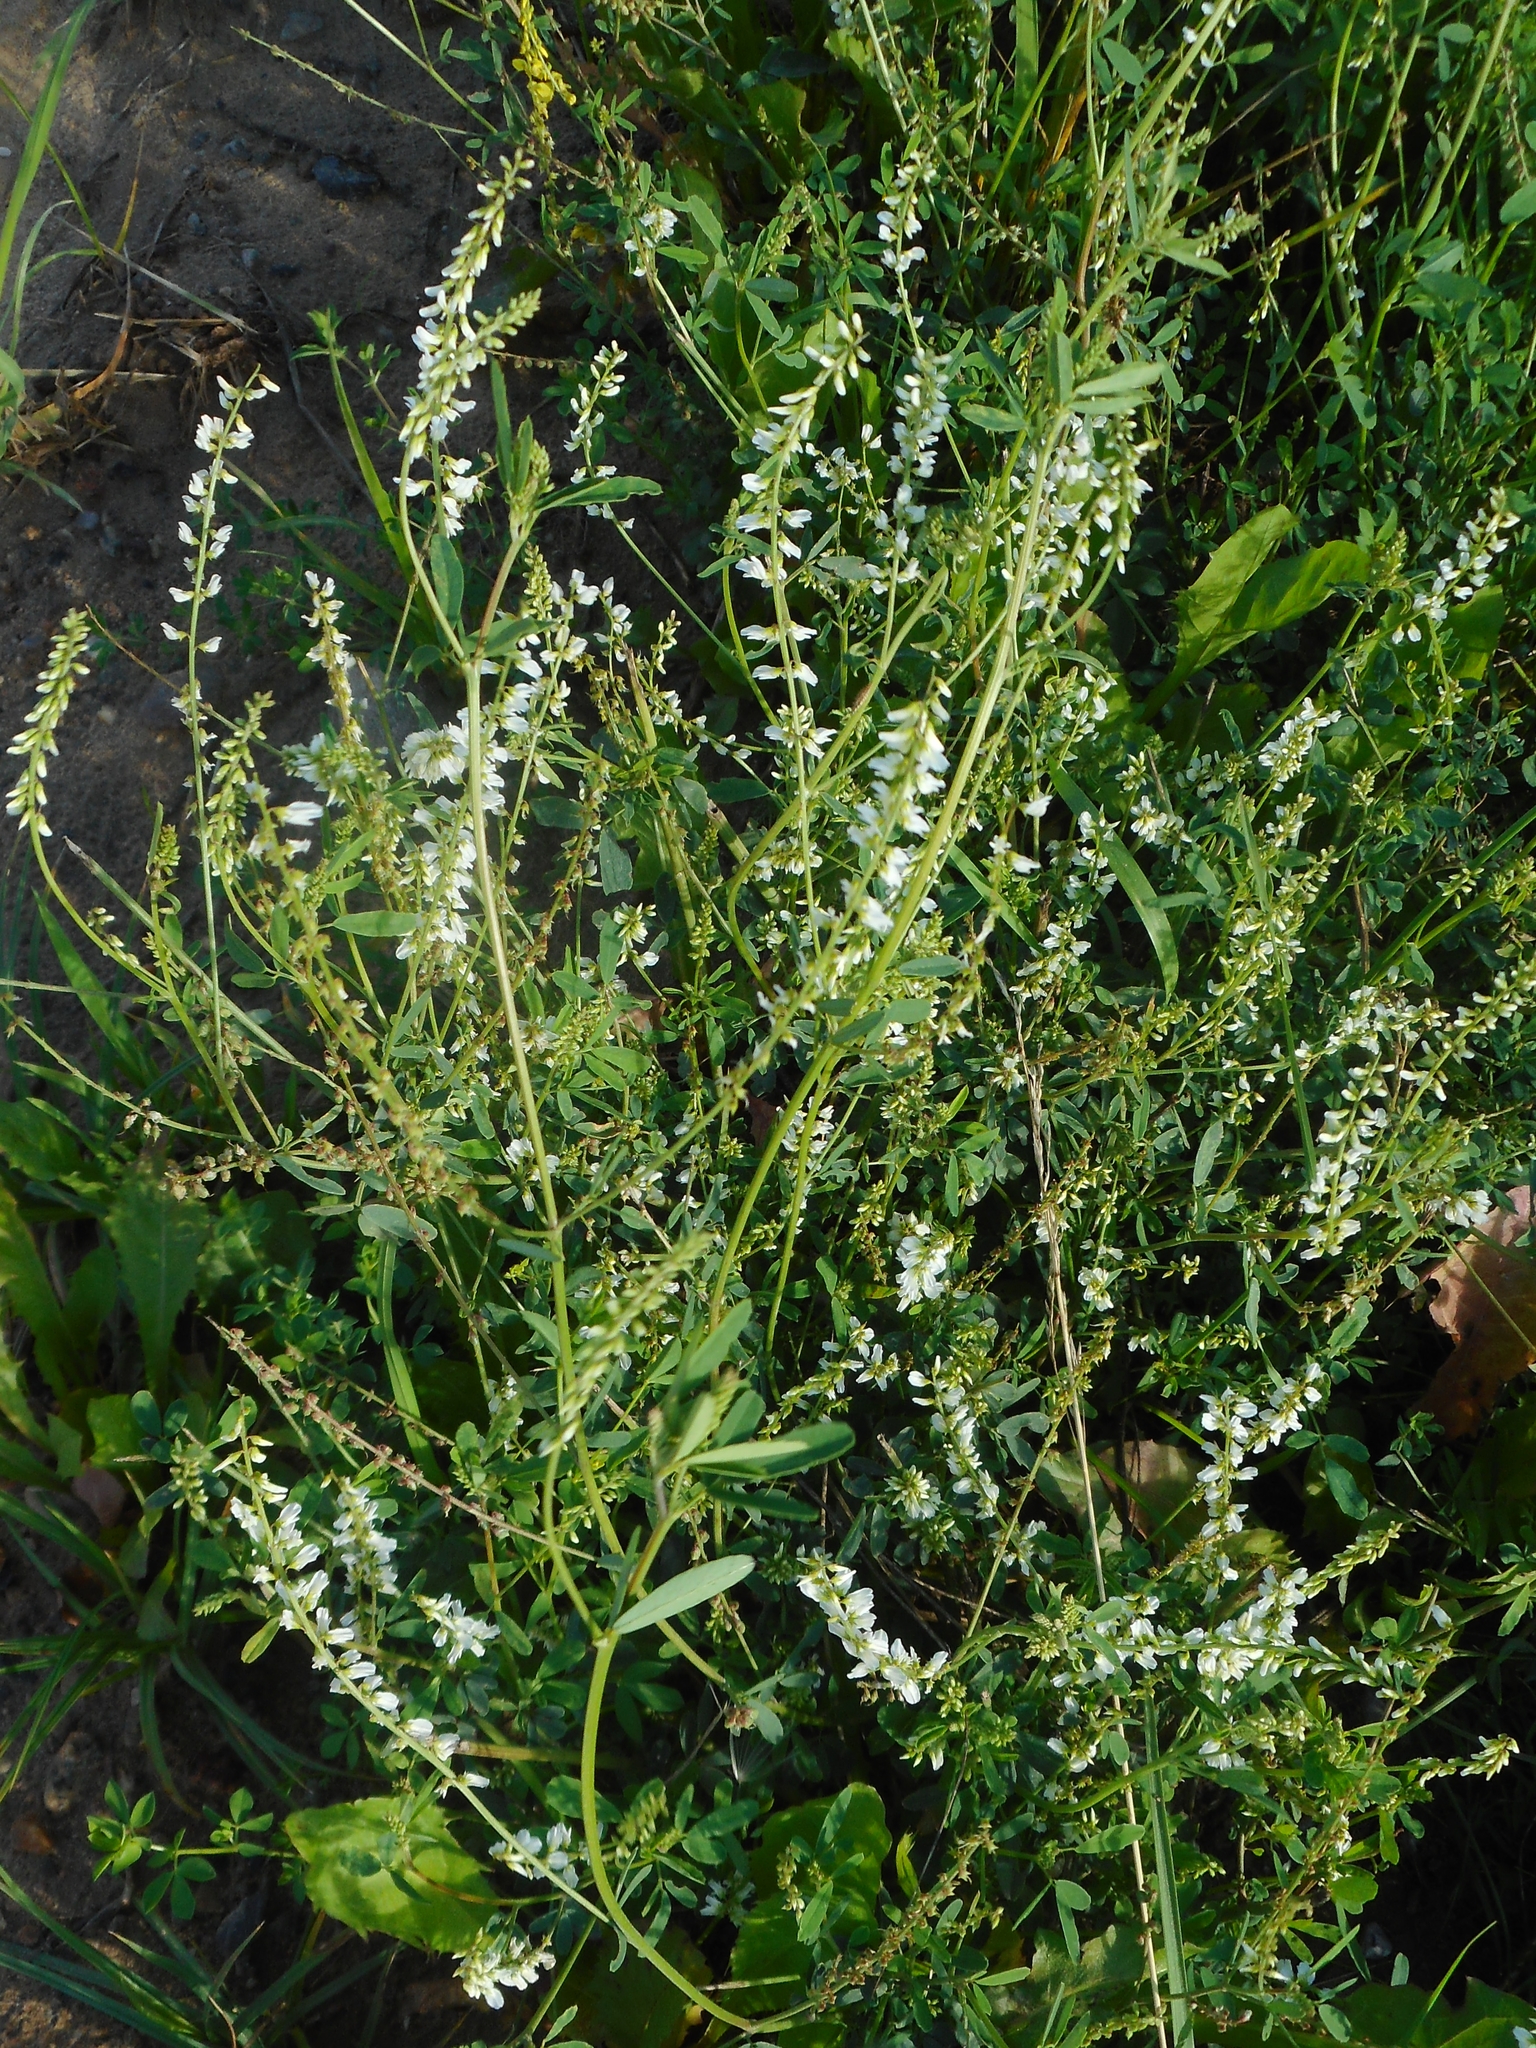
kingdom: Plantae
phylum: Tracheophyta
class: Magnoliopsida
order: Fabales
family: Fabaceae
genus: Melilotus
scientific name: Melilotus albus
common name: White melilot
